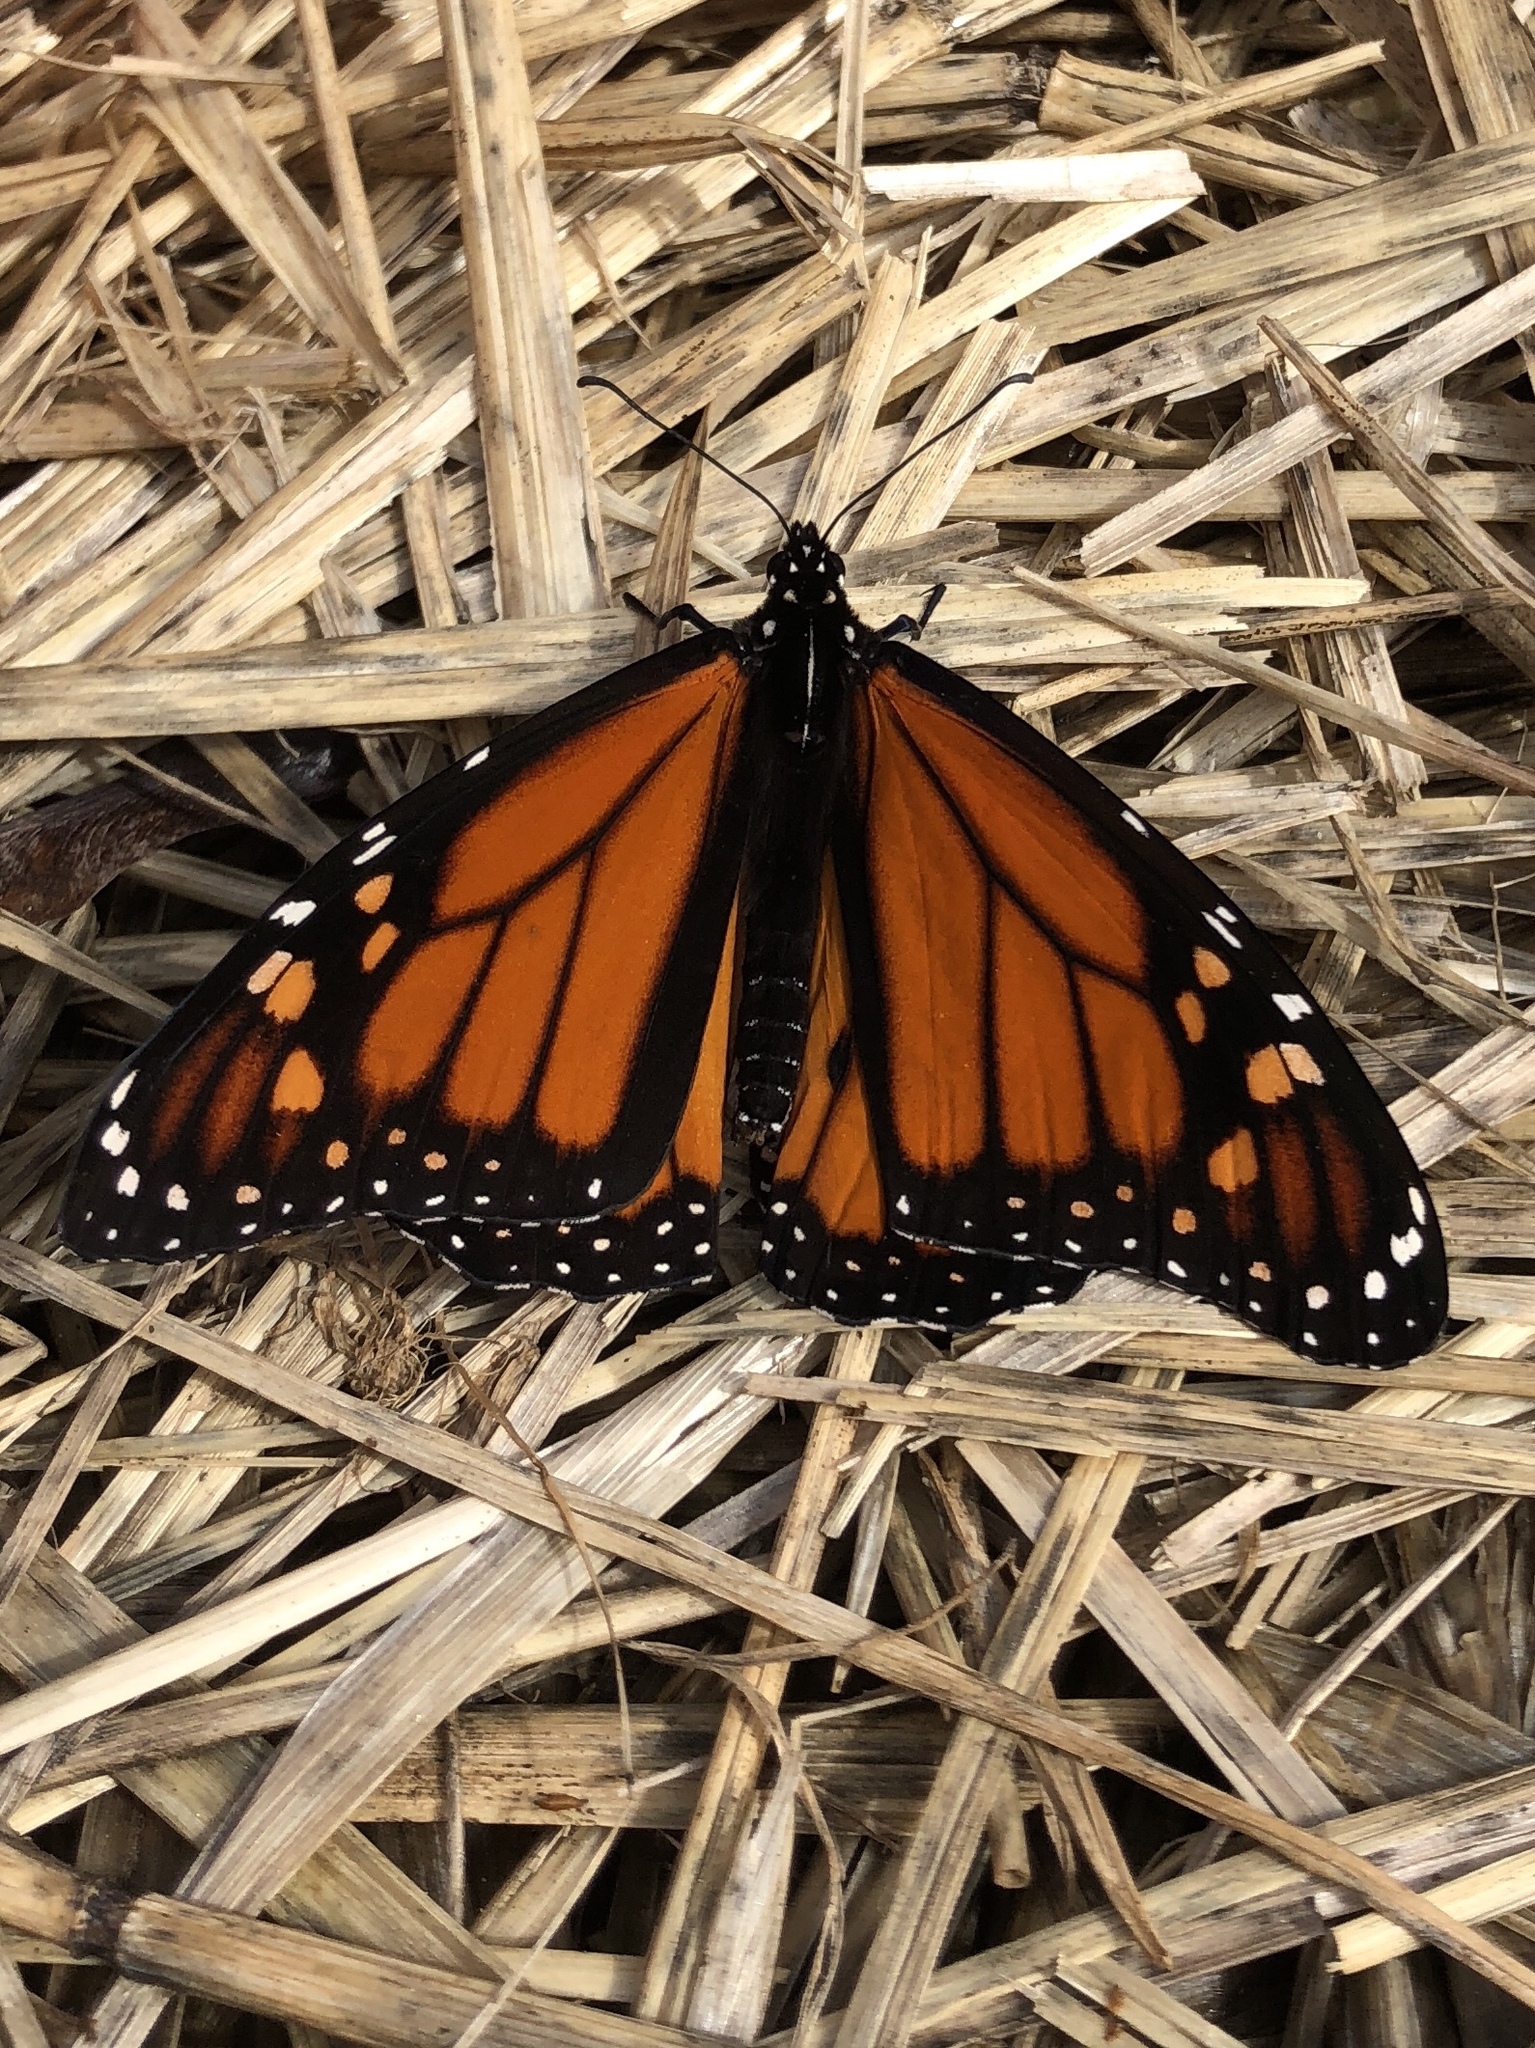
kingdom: Animalia
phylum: Arthropoda
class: Insecta
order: Lepidoptera
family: Nymphalidae
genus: Danaus
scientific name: Danaus plexippus
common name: Monarch
